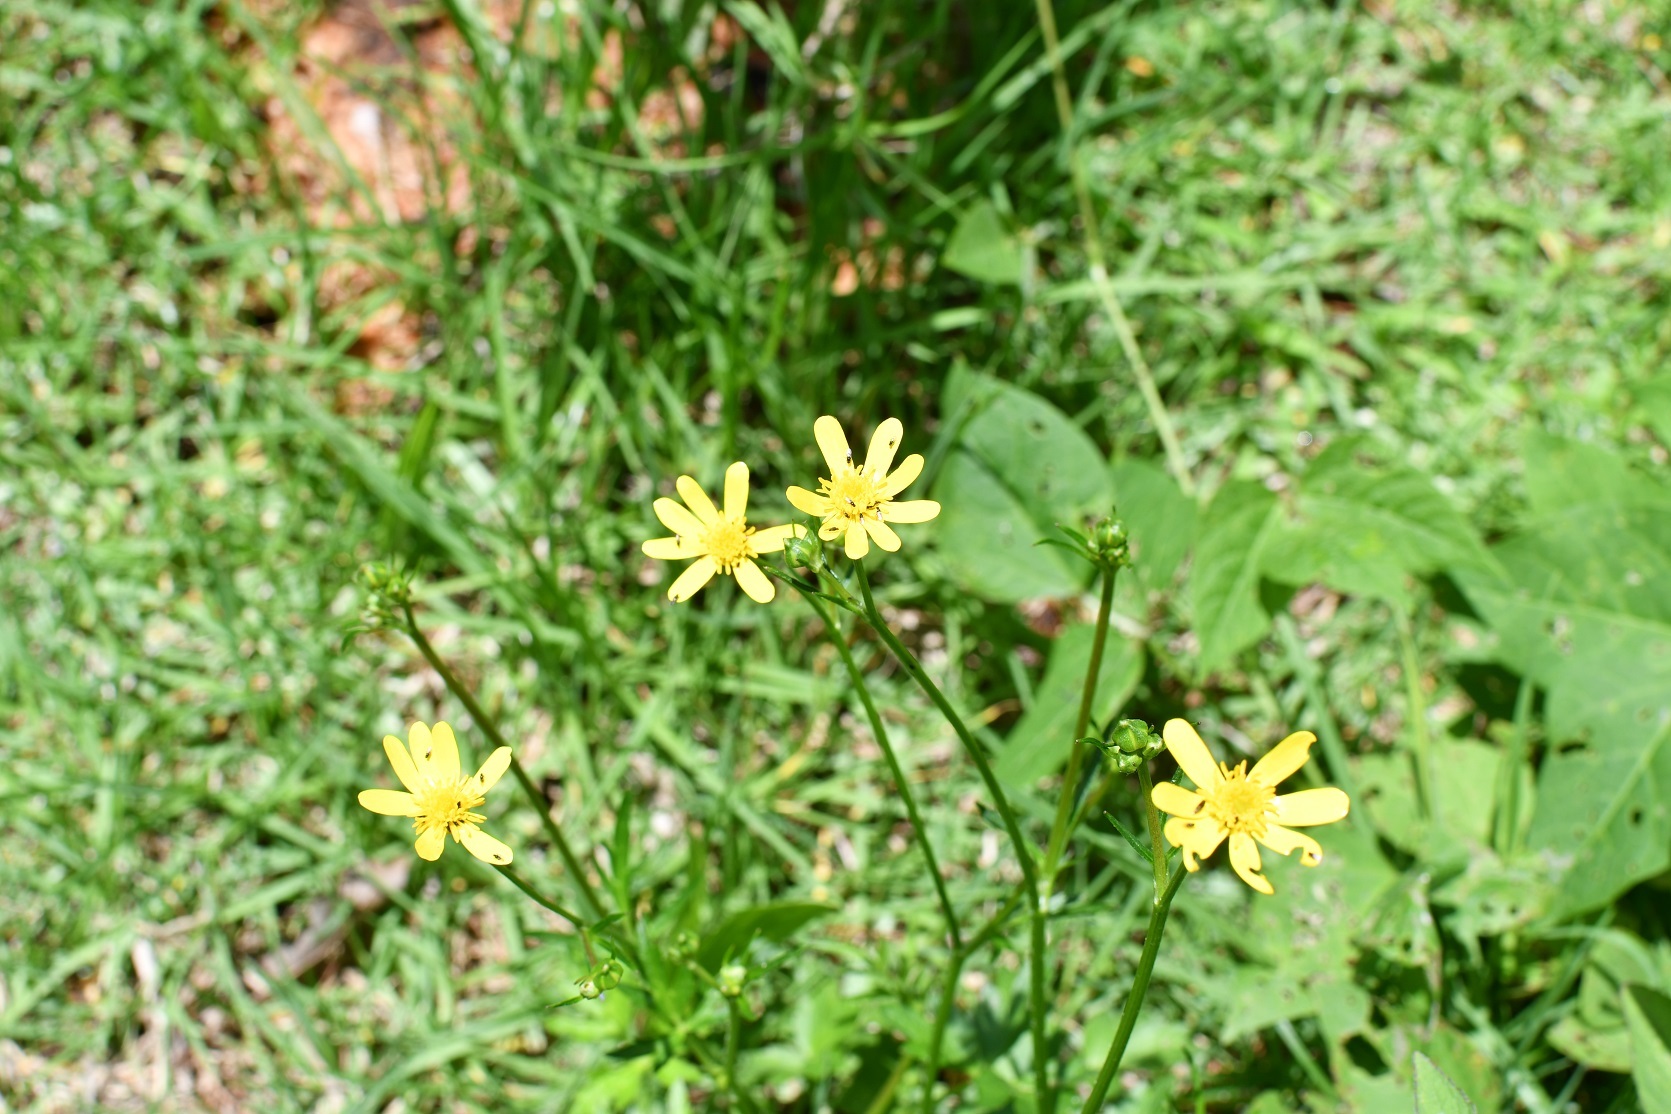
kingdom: Plantae
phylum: Tracheophyta
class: Magnoliopsida
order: Ranunculales
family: Ranunculaceae
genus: Ranunculus
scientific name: Ranunculus petiolaris
